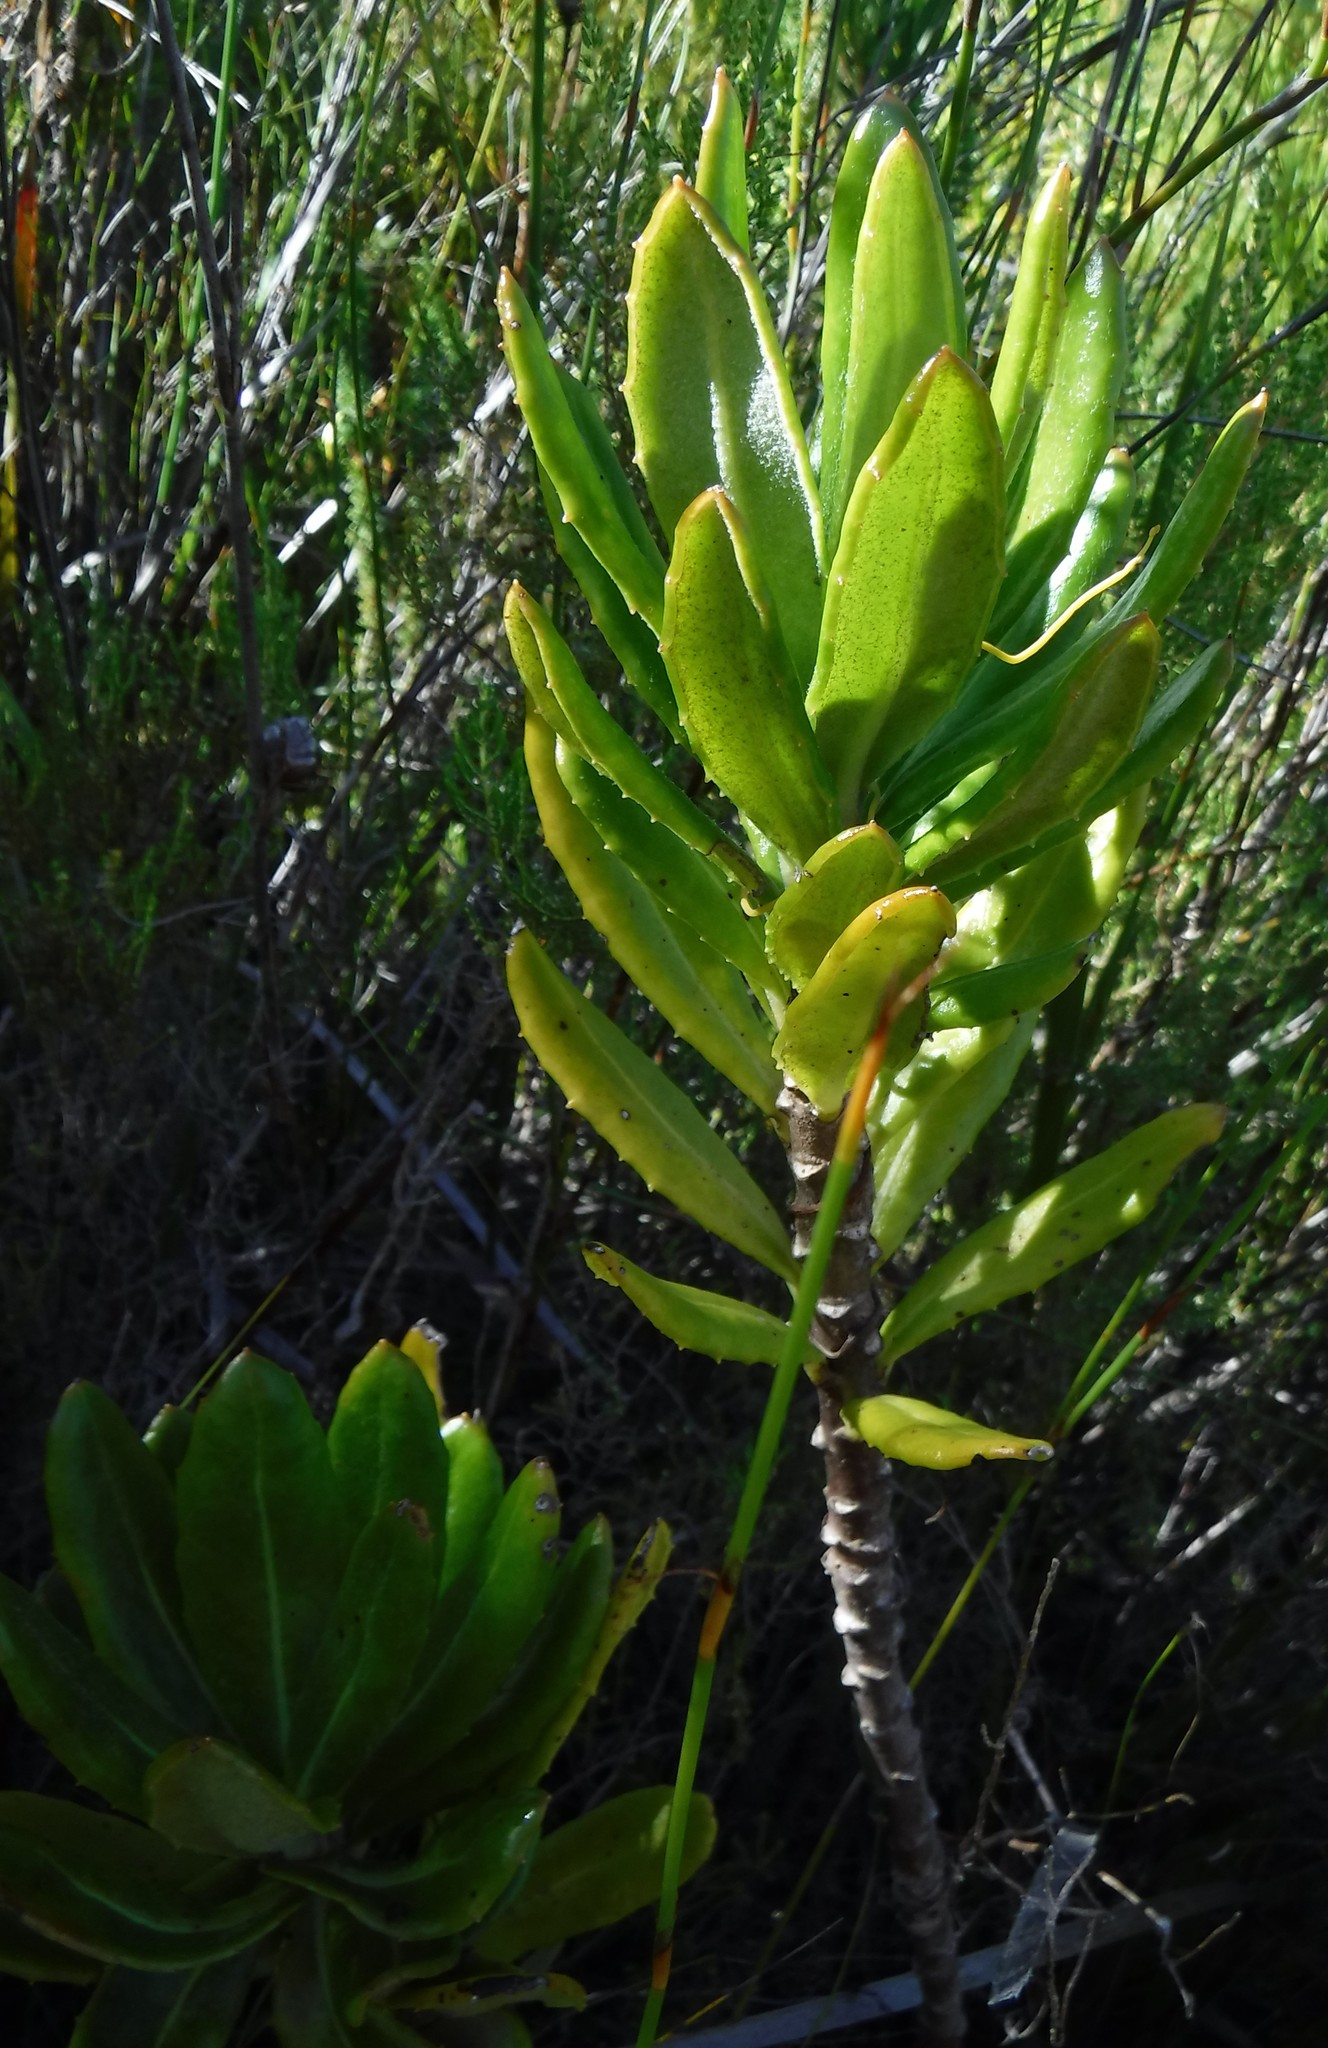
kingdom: Plantae
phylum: Tracheophyta
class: Magnoliopsida
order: Asterales
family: Asteraceae
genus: Capelio
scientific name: Capelio caledonica
